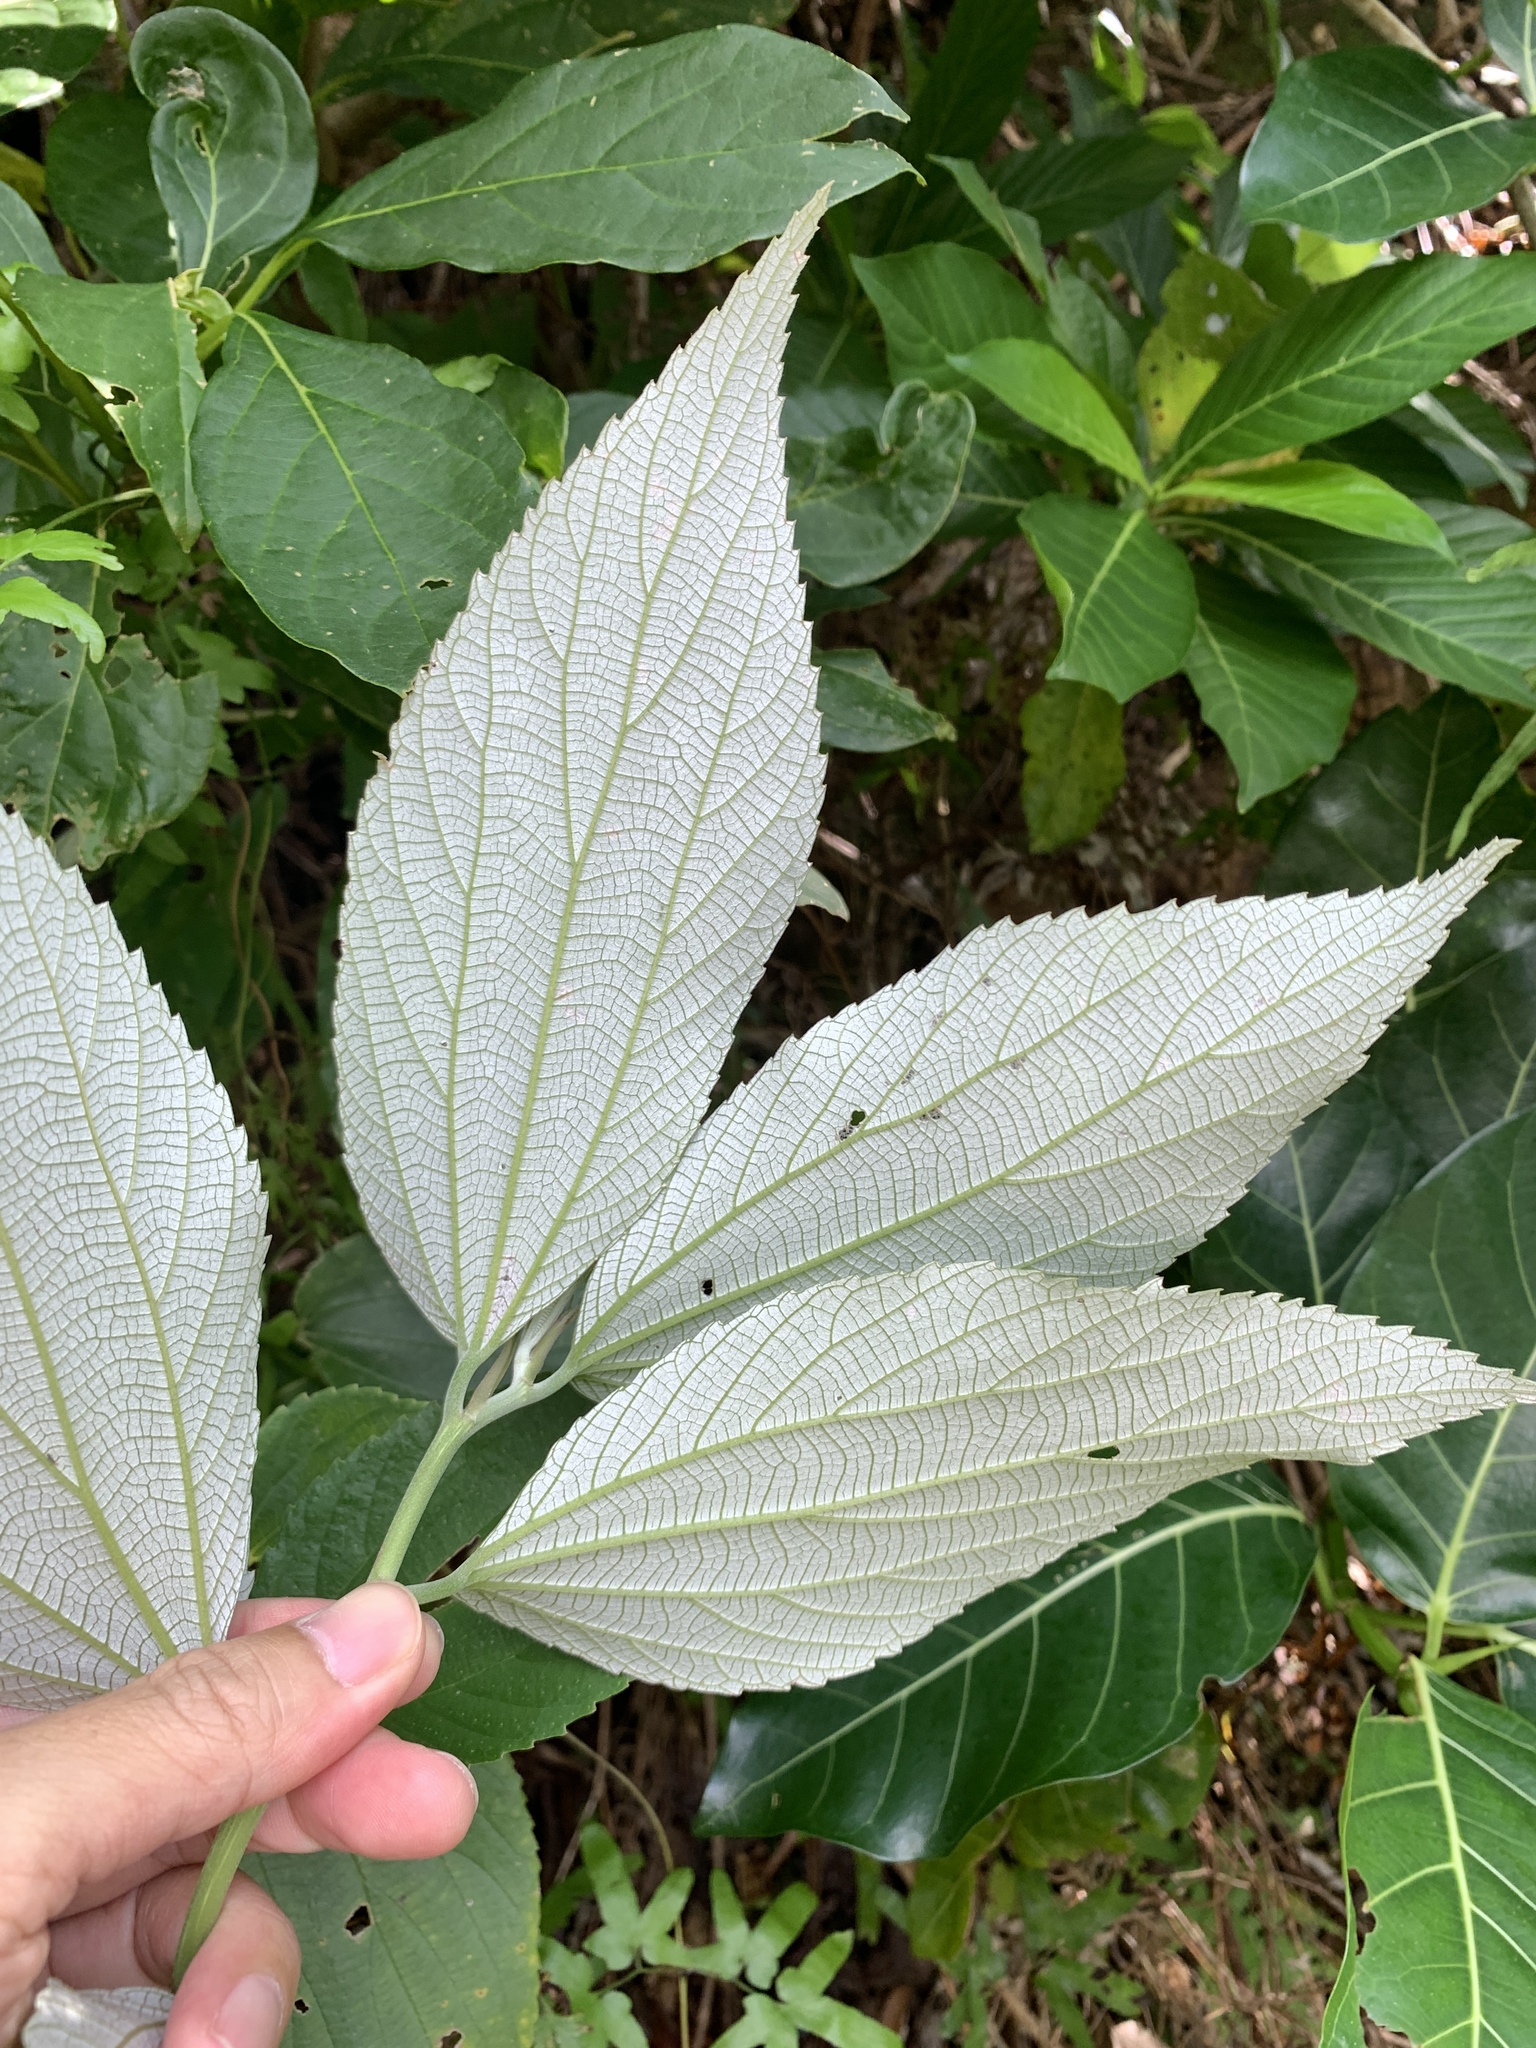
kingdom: Plantae
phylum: Tracheophyta
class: Magnoliopsida
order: Rosales
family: Urticaceae
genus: Leucosyke
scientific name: Leucosyke quadrinervia
